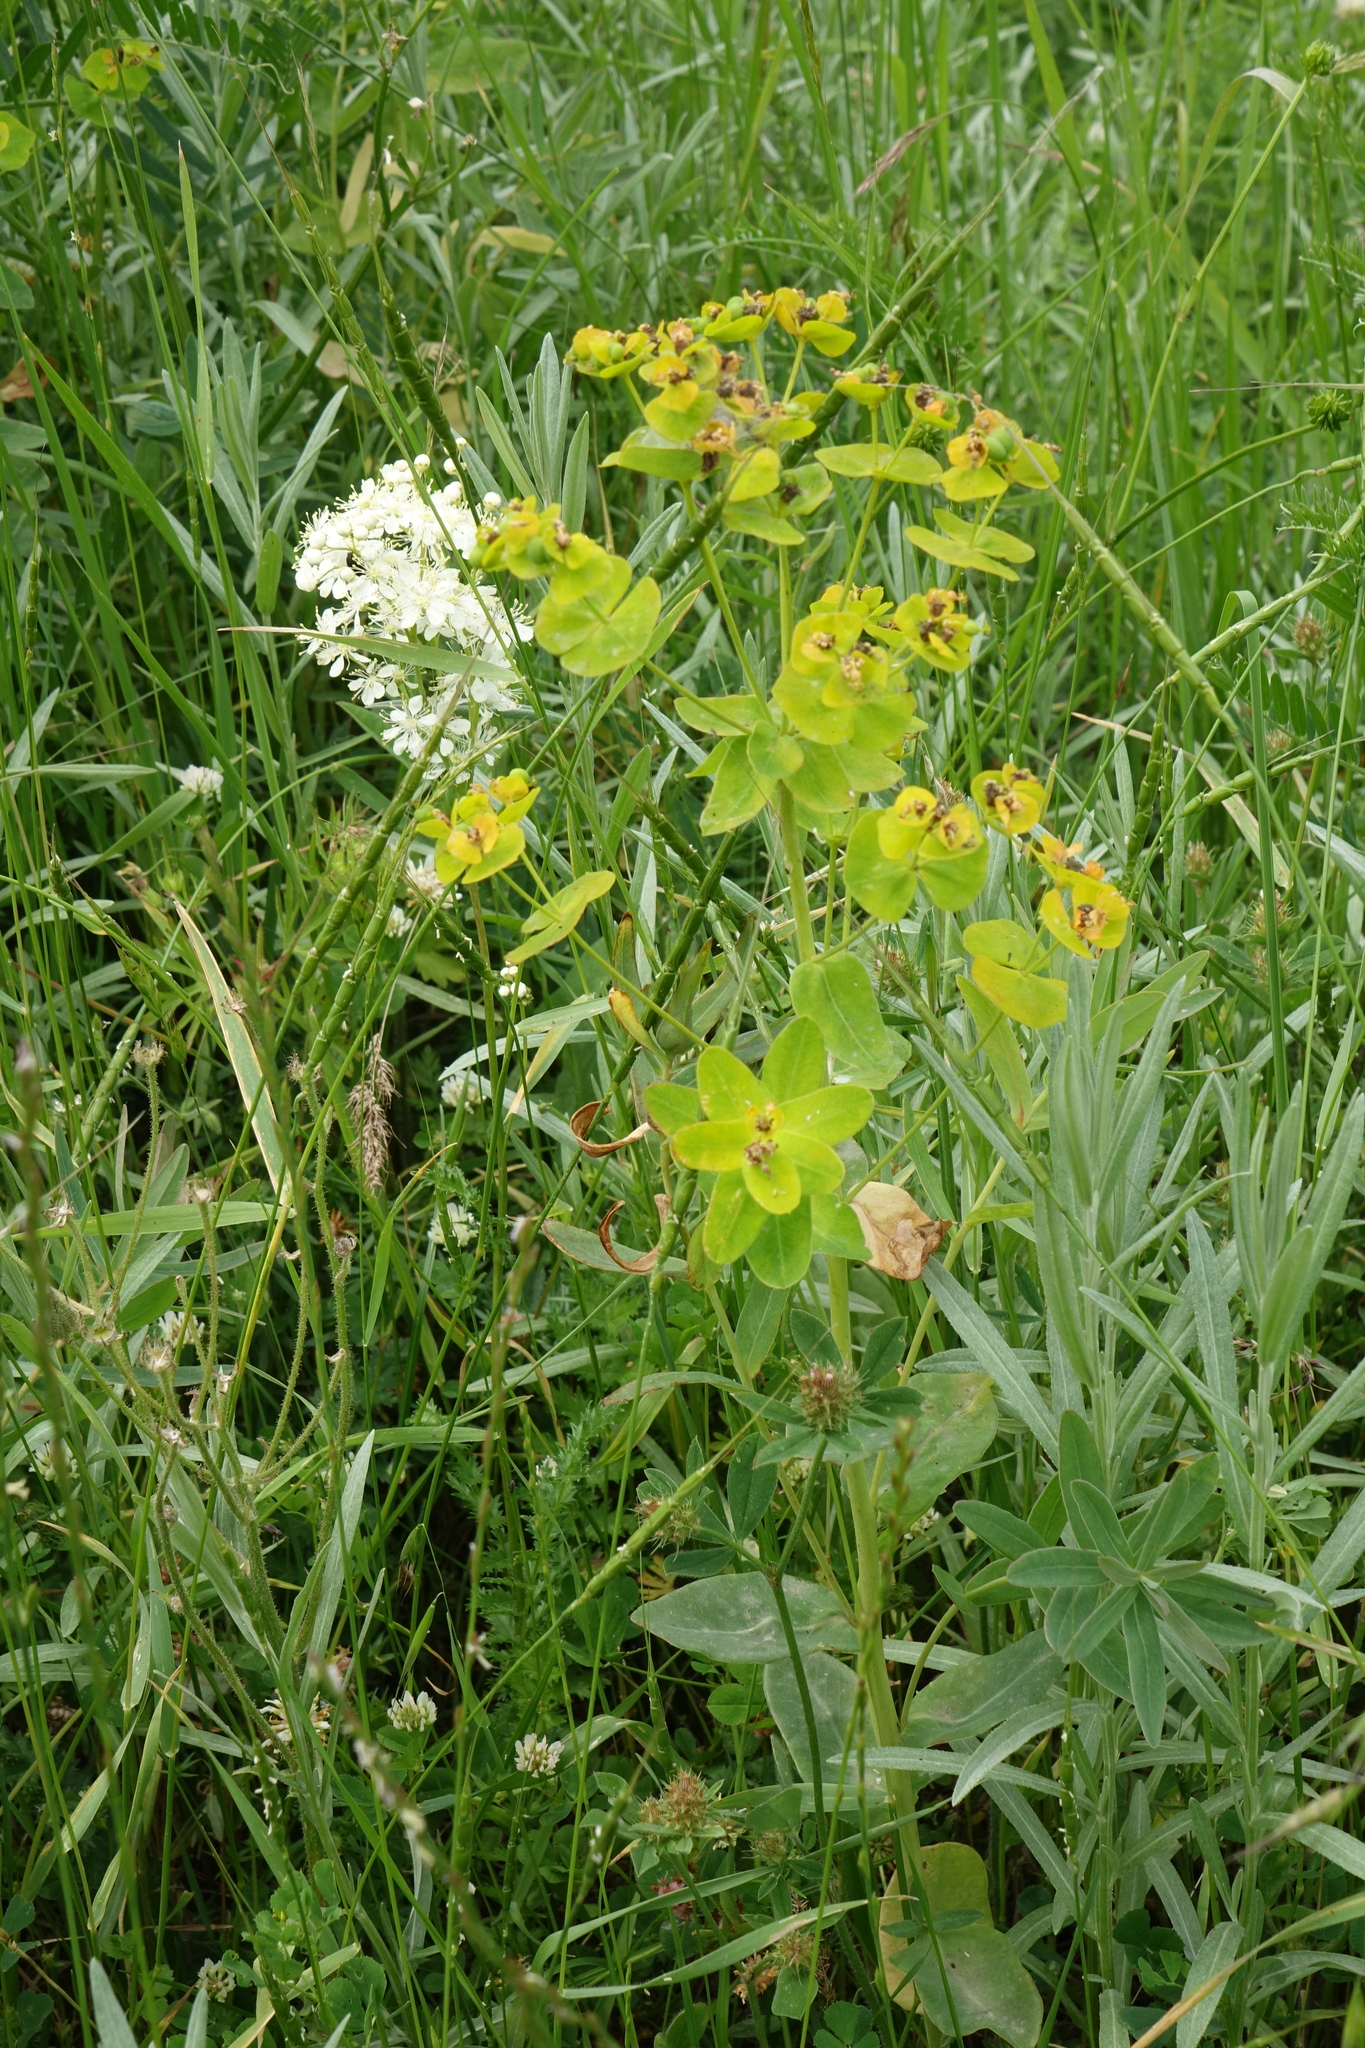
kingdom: Plantae
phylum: Tracheophyta
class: Magnoliopsida
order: Malpighiales
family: Euphorbiaceae
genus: Euphorbia
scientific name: Euphorbia iberica
